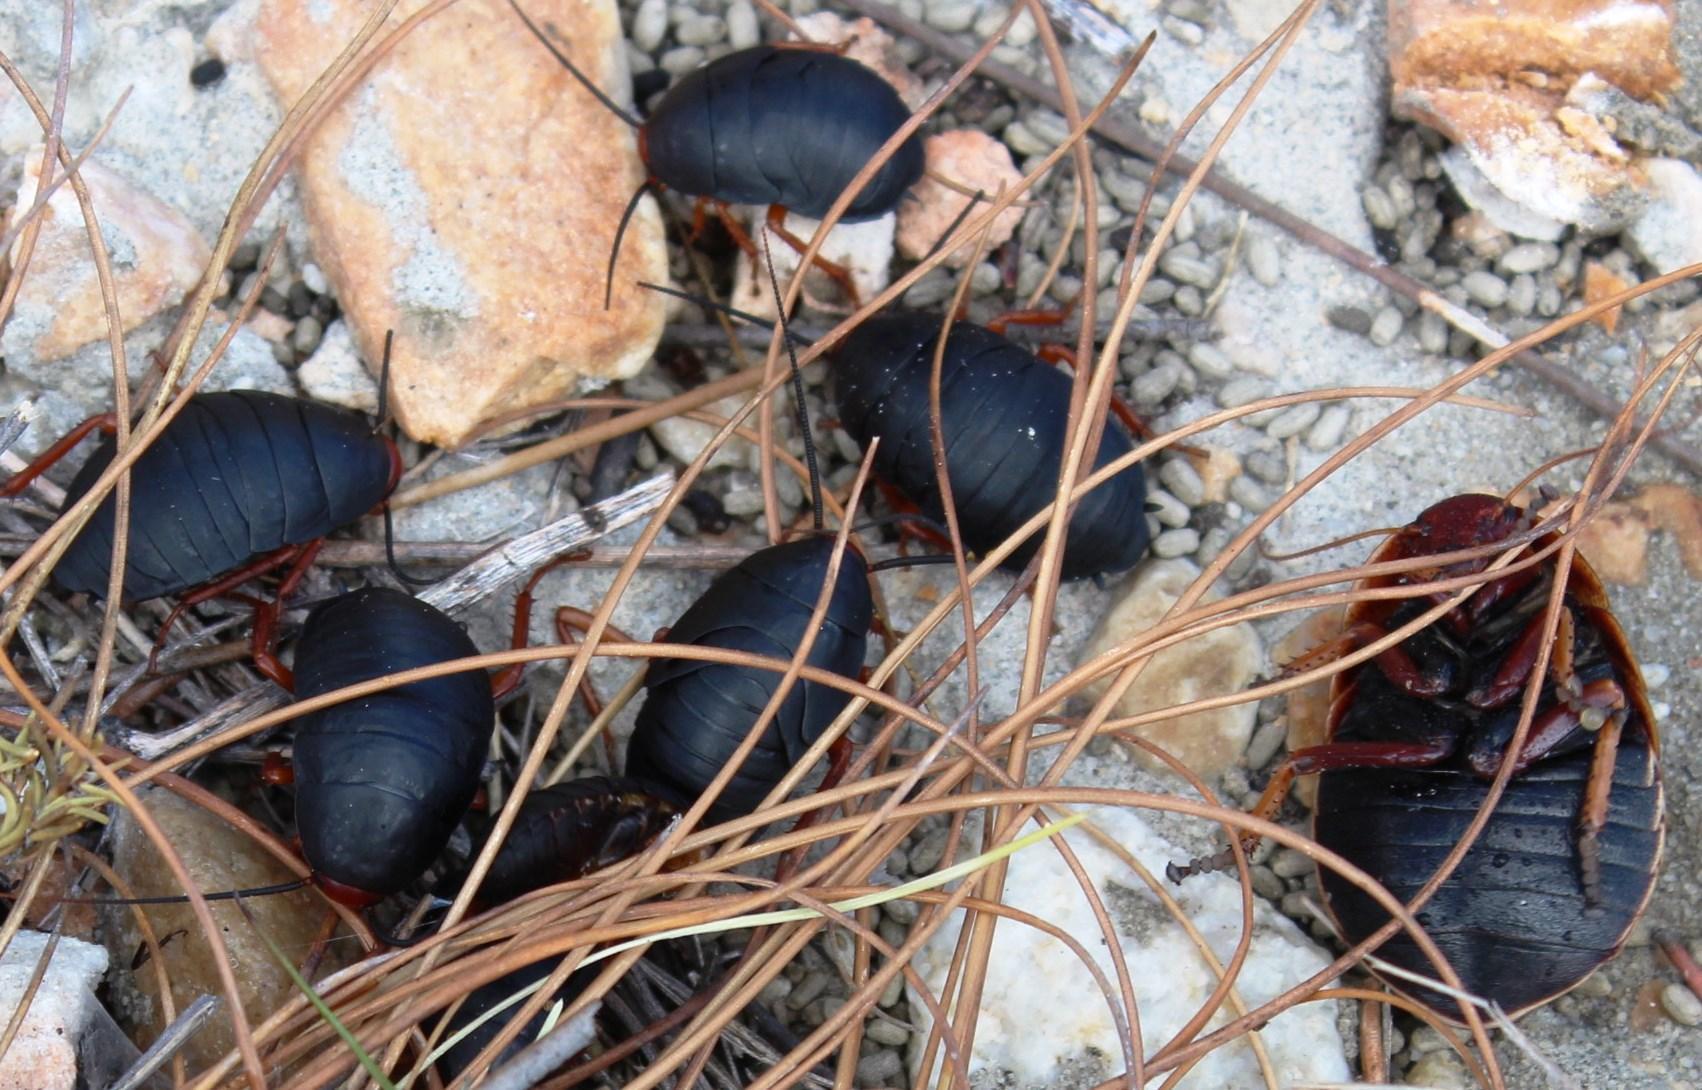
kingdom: Animalia
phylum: Arthropoda
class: Insecta
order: Blattodea
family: Blattidae
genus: Deropeltis
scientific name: Deropeltis erythrocephala
